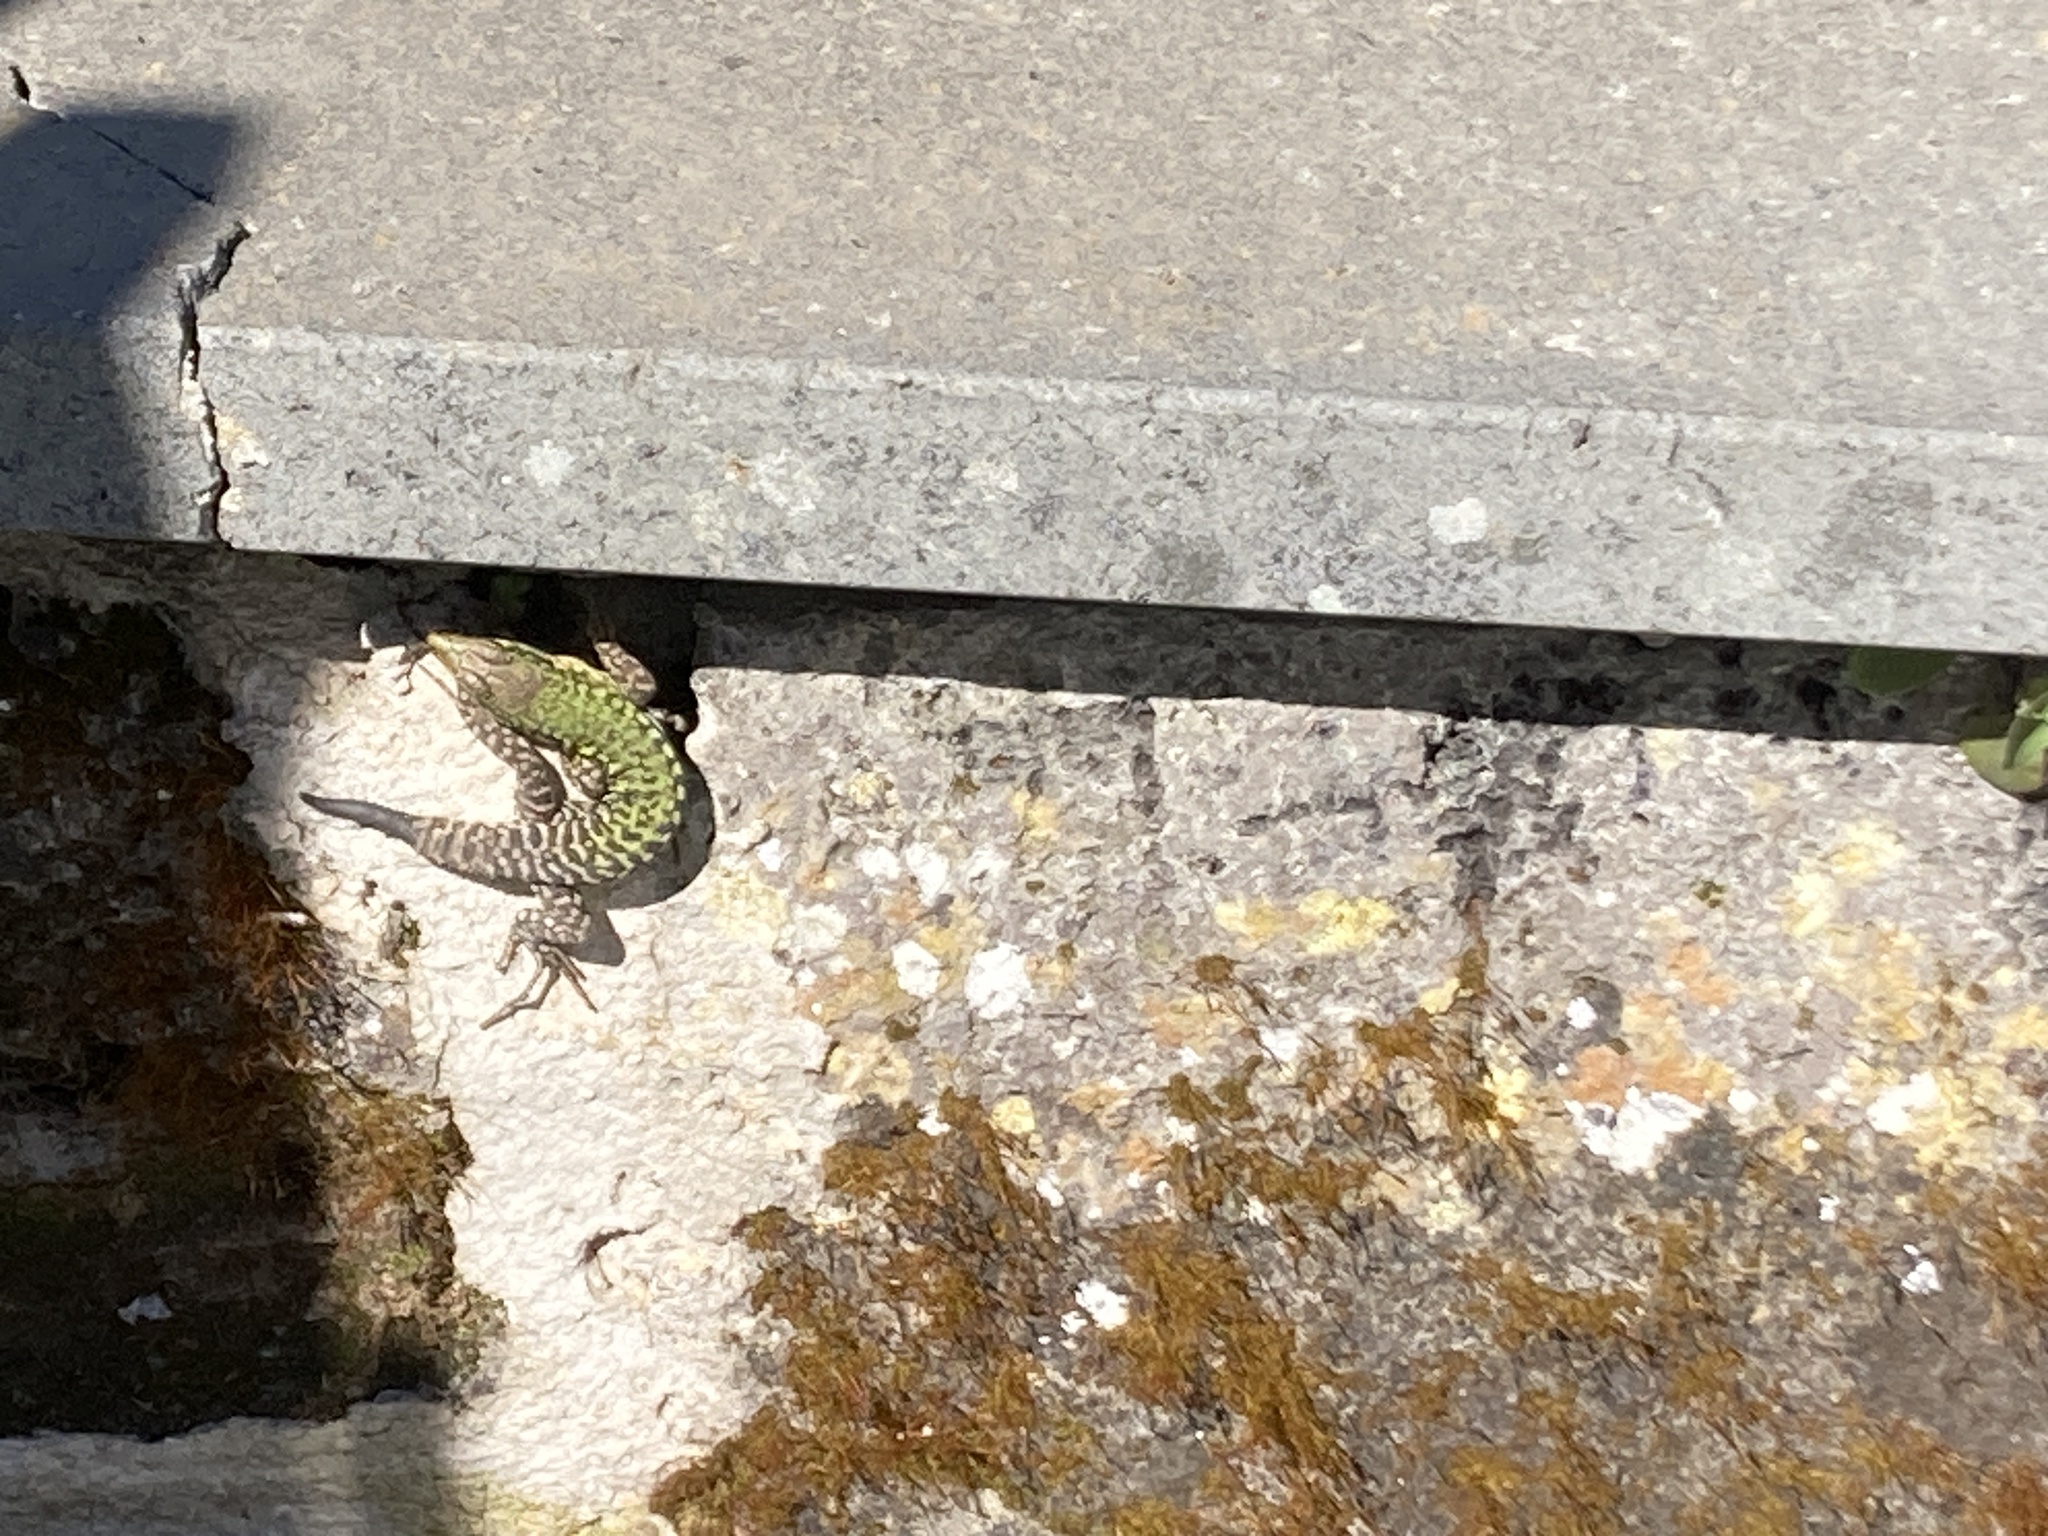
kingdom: Animalia
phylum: Chordata
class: Squamata
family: Lacertidae
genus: Podarcis
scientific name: Podarcis siculus
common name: Italian wall lizard
